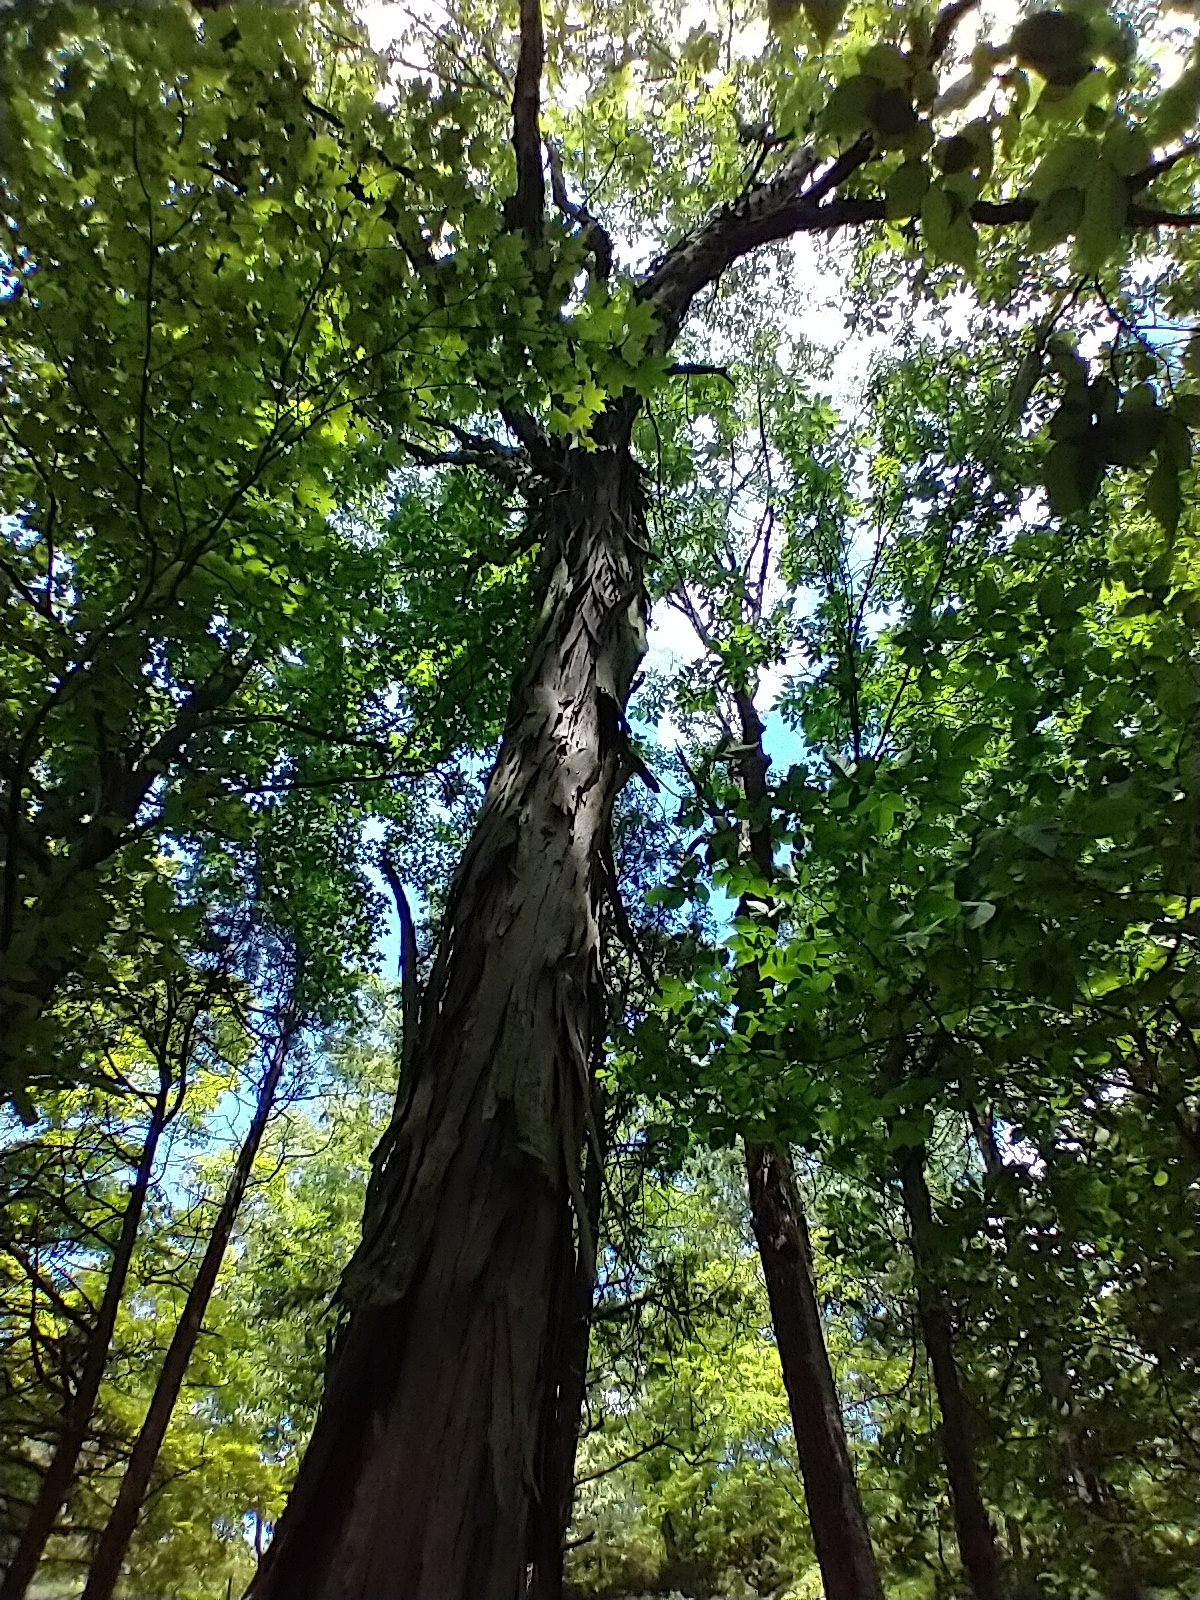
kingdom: Plantae
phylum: Tracheophyta
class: Magnoliopsida
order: Fagales
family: Juglandaceae
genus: Carya
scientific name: Carya ovata
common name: Shagbark hickory
